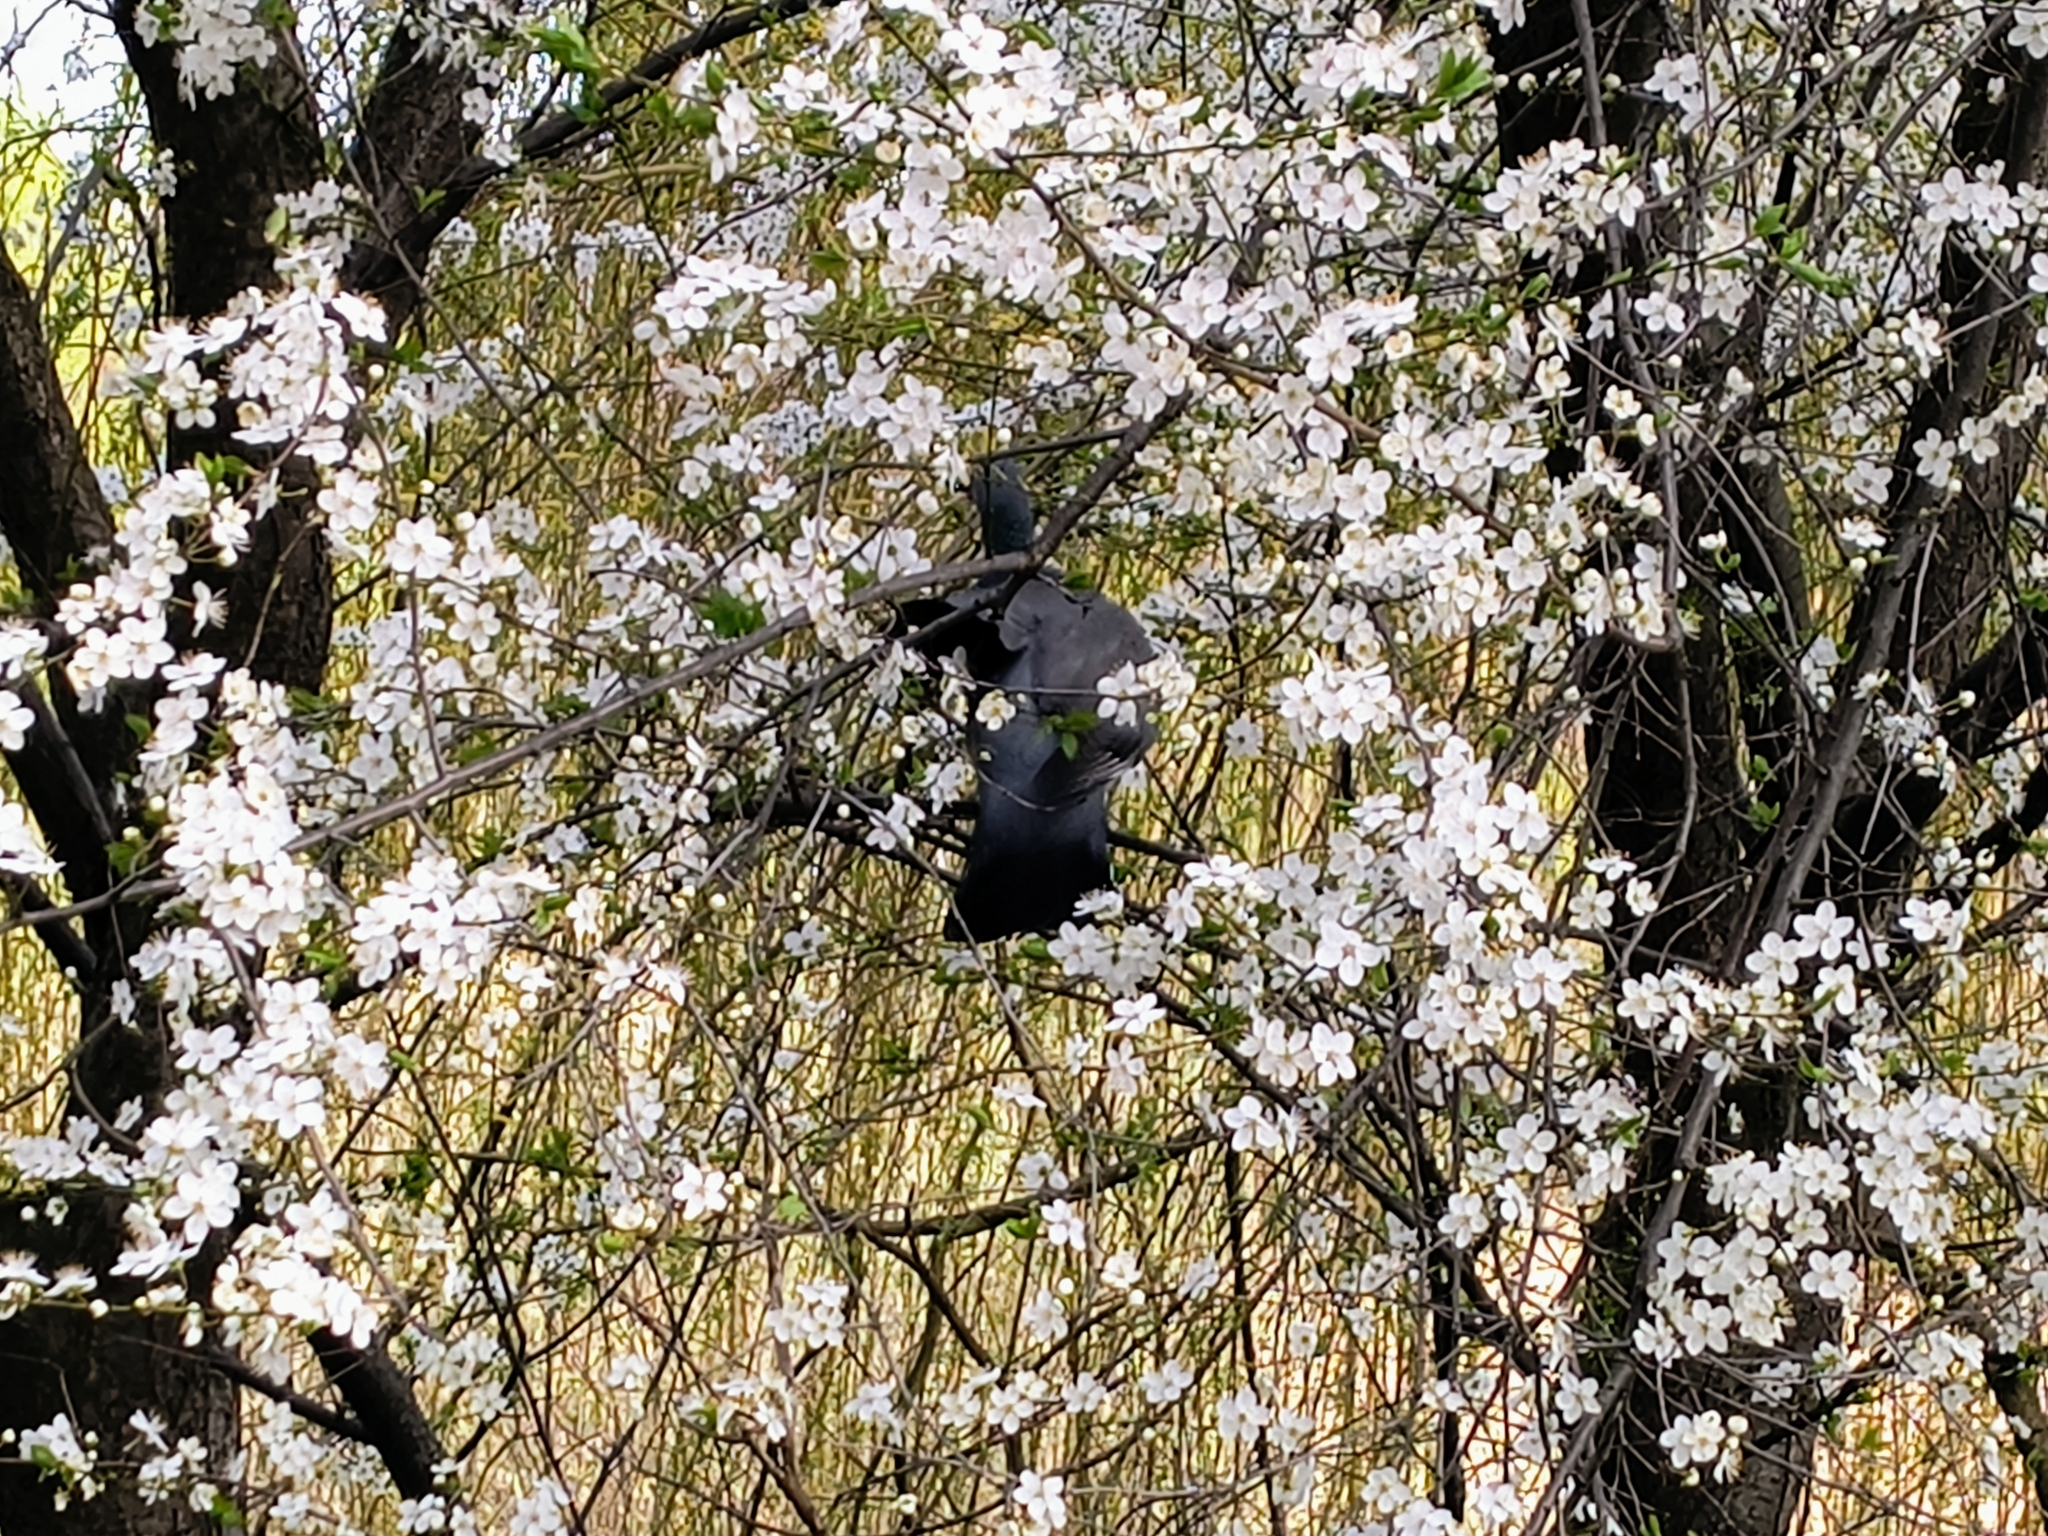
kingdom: Animalia
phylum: Chordata
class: Aves
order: Columbiformes
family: Columbidae
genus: Columba
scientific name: Columba palumbus
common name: Common wood pigeon
